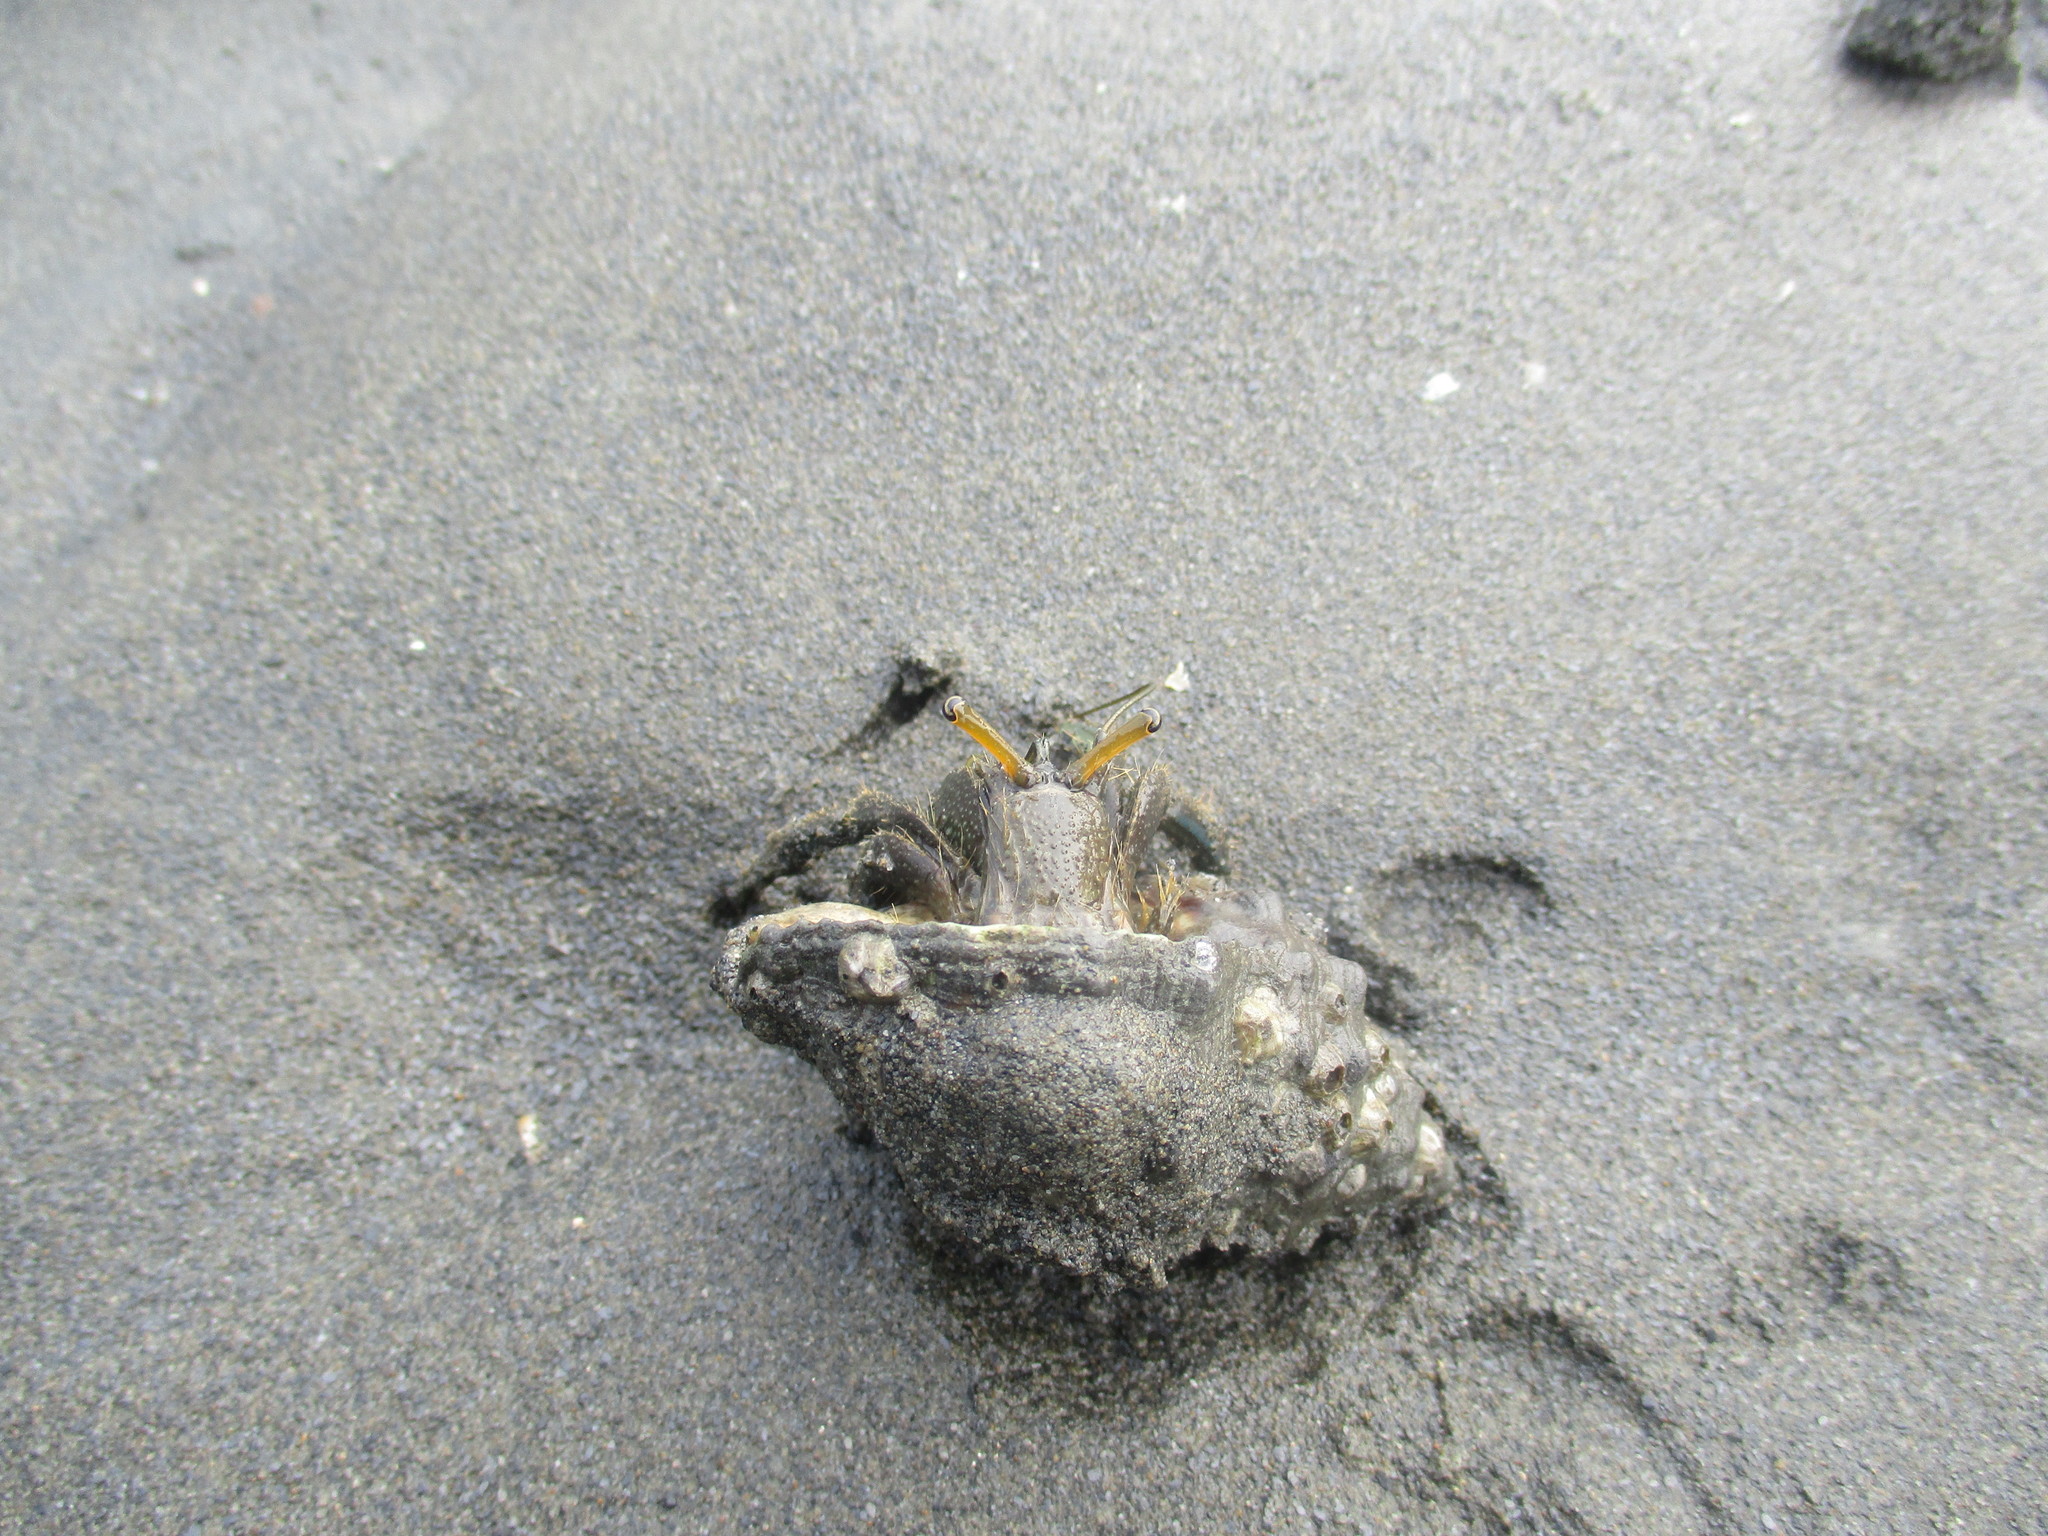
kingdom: Animalia
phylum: Arthropoda
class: Malacostraca
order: Decapoda
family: Diogenidae
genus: Clibanarius
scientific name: Clibanarius longitarsus
